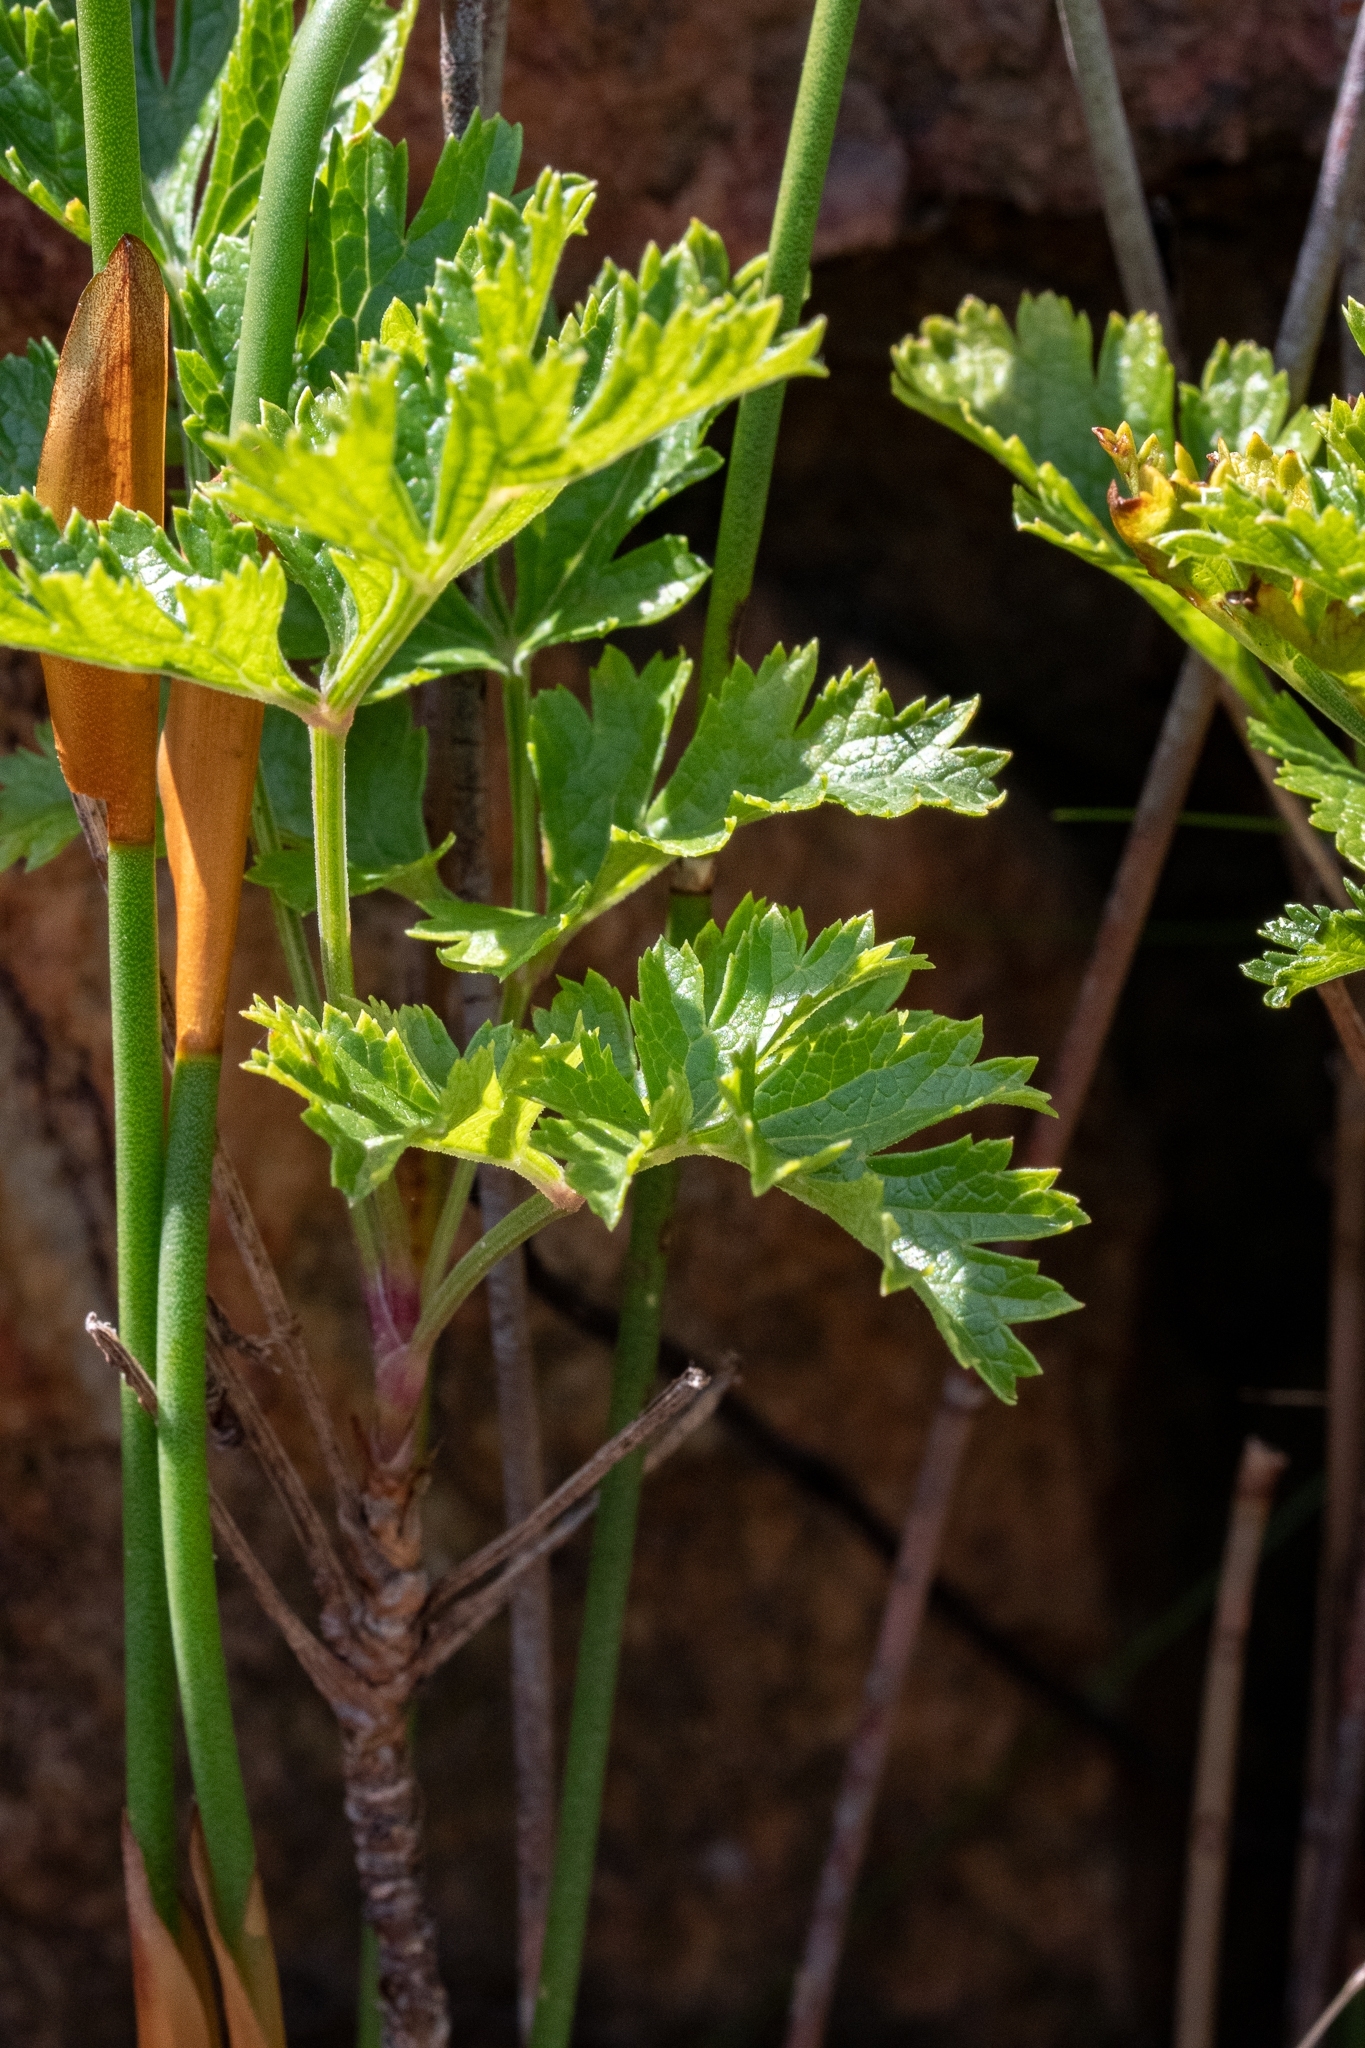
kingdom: Plantae
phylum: Tracheophyta
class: Magnoliopsida
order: Apiales
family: Apiaceae
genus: Notobubon
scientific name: Notobubon galbanum
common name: Blisterbush
